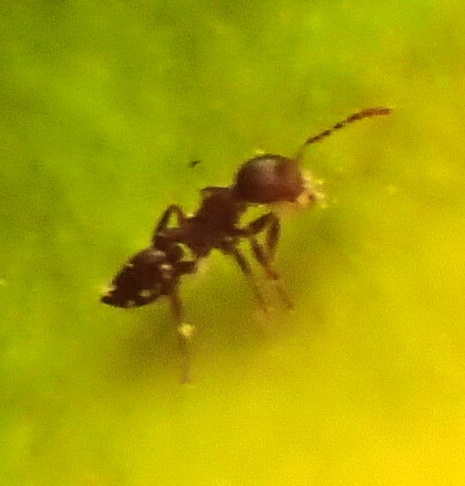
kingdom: Animalia
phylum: Arthropoda
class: Insecta
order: Hymenoptera
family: Formicidae
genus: Crematogaster
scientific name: Crematogaster ashmeadi
